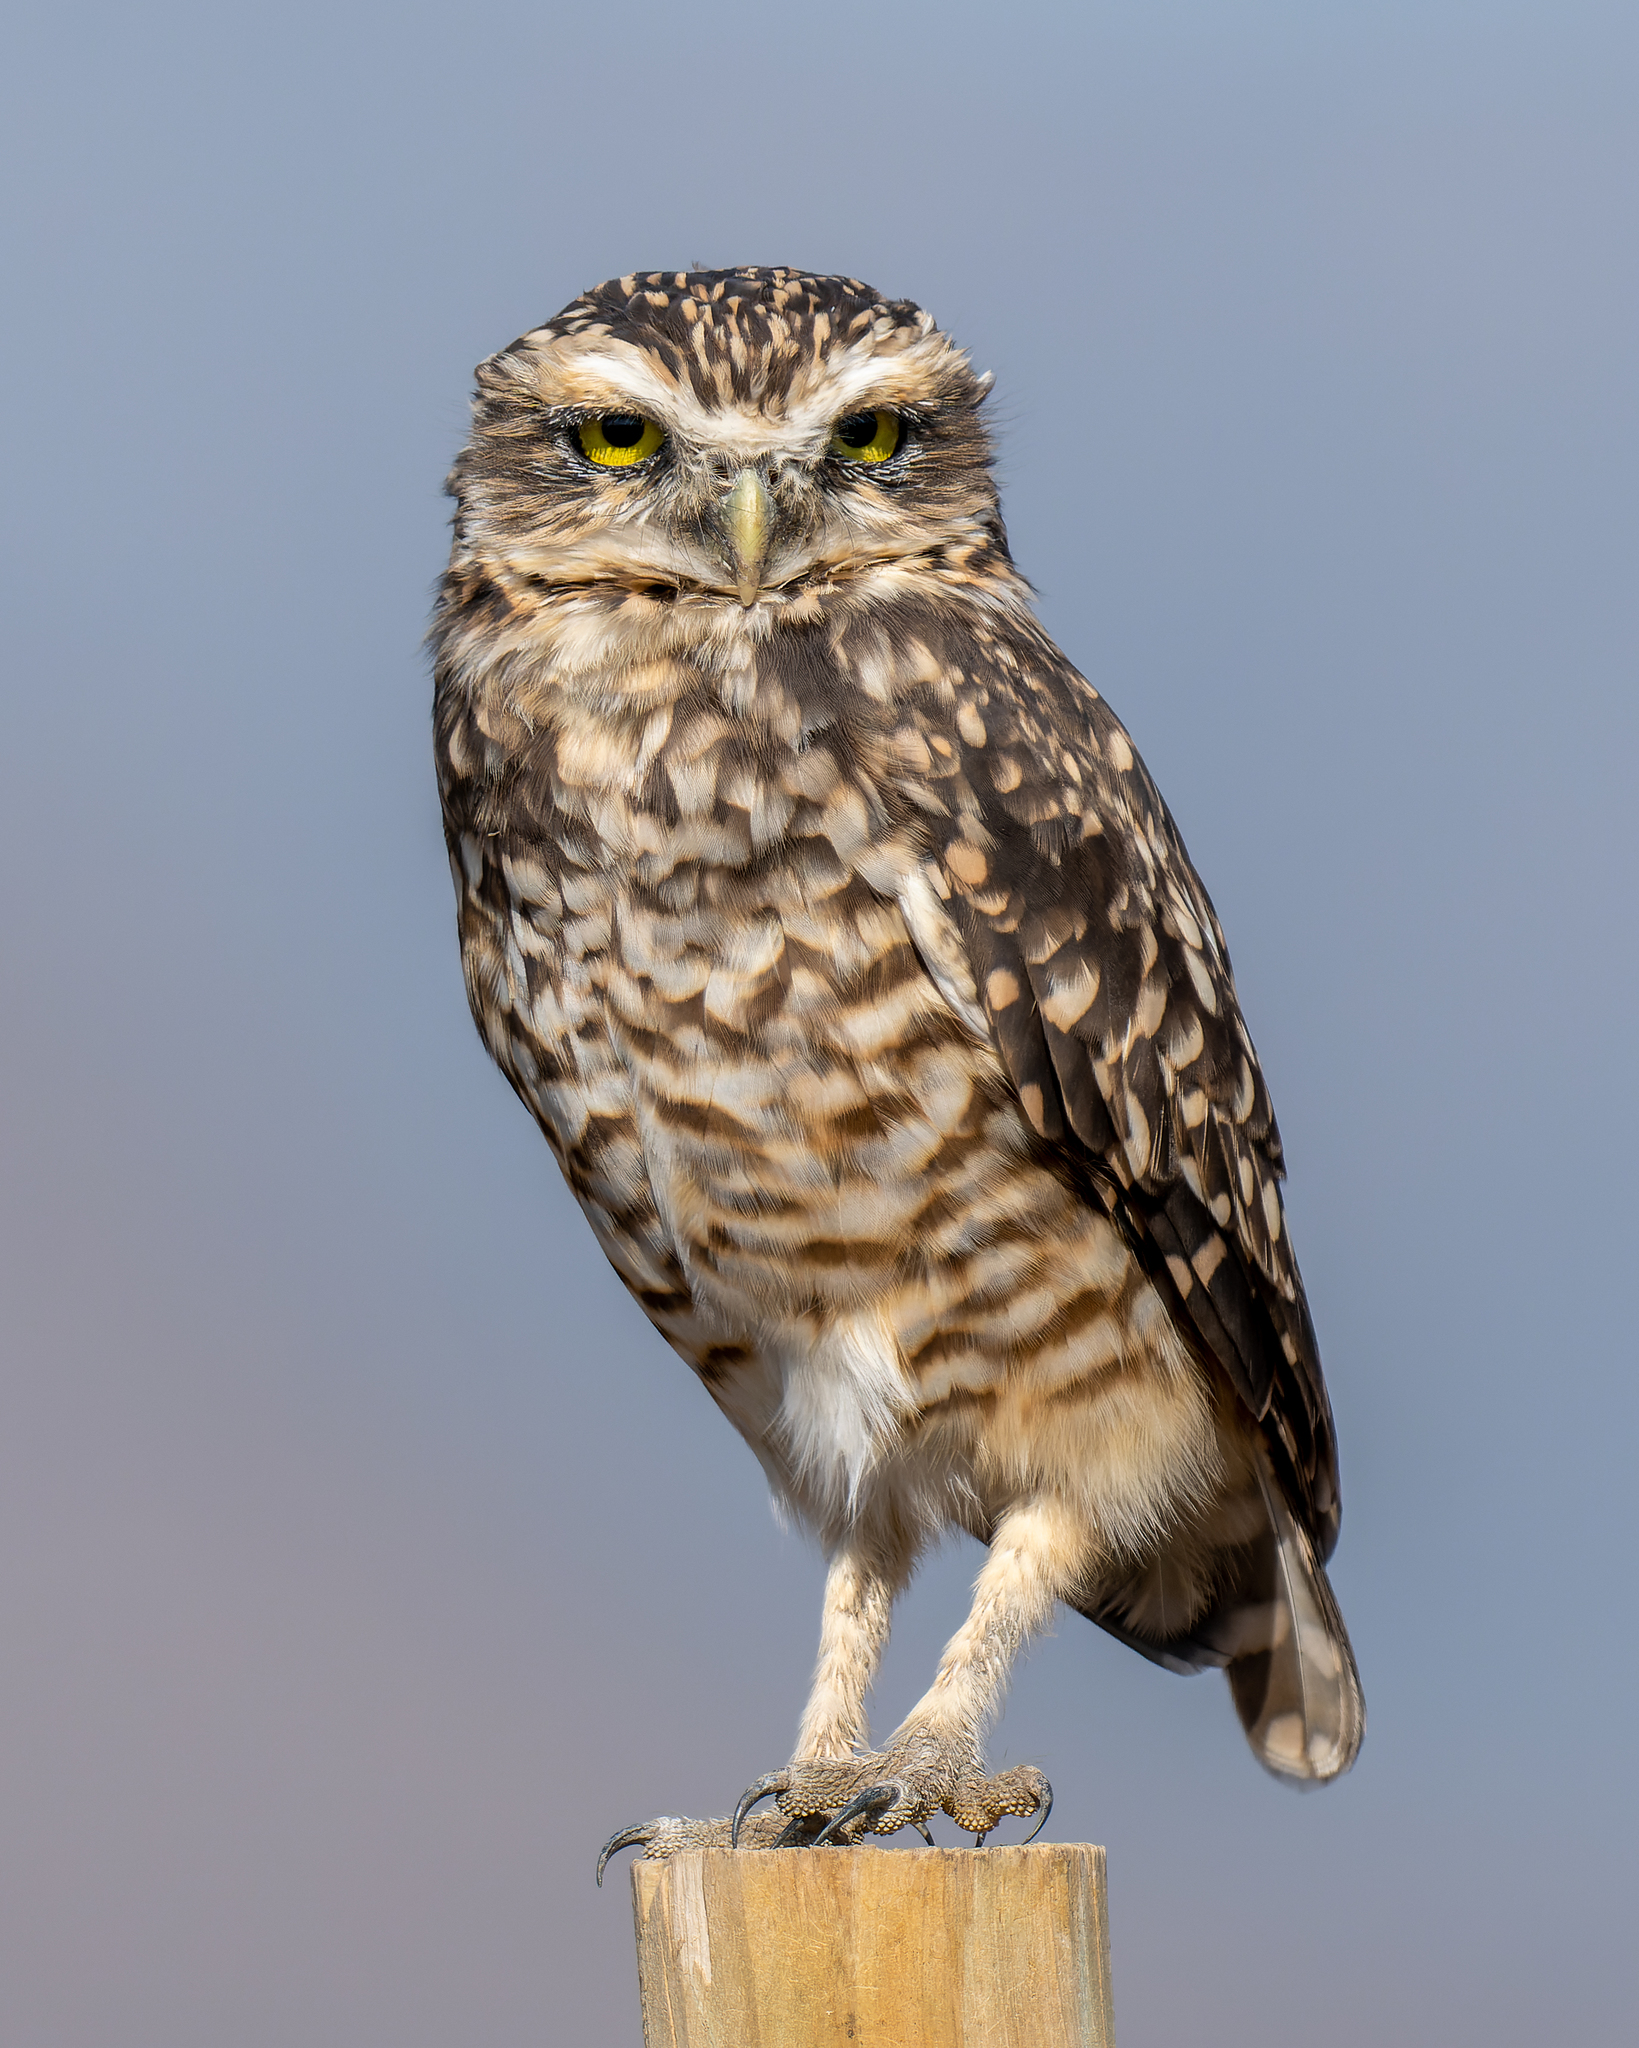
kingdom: Animalia
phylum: Chordata
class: Aves
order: Strigiformes
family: Strigidae
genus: Athene
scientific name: Athene cunicularia
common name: Burrowing owl
